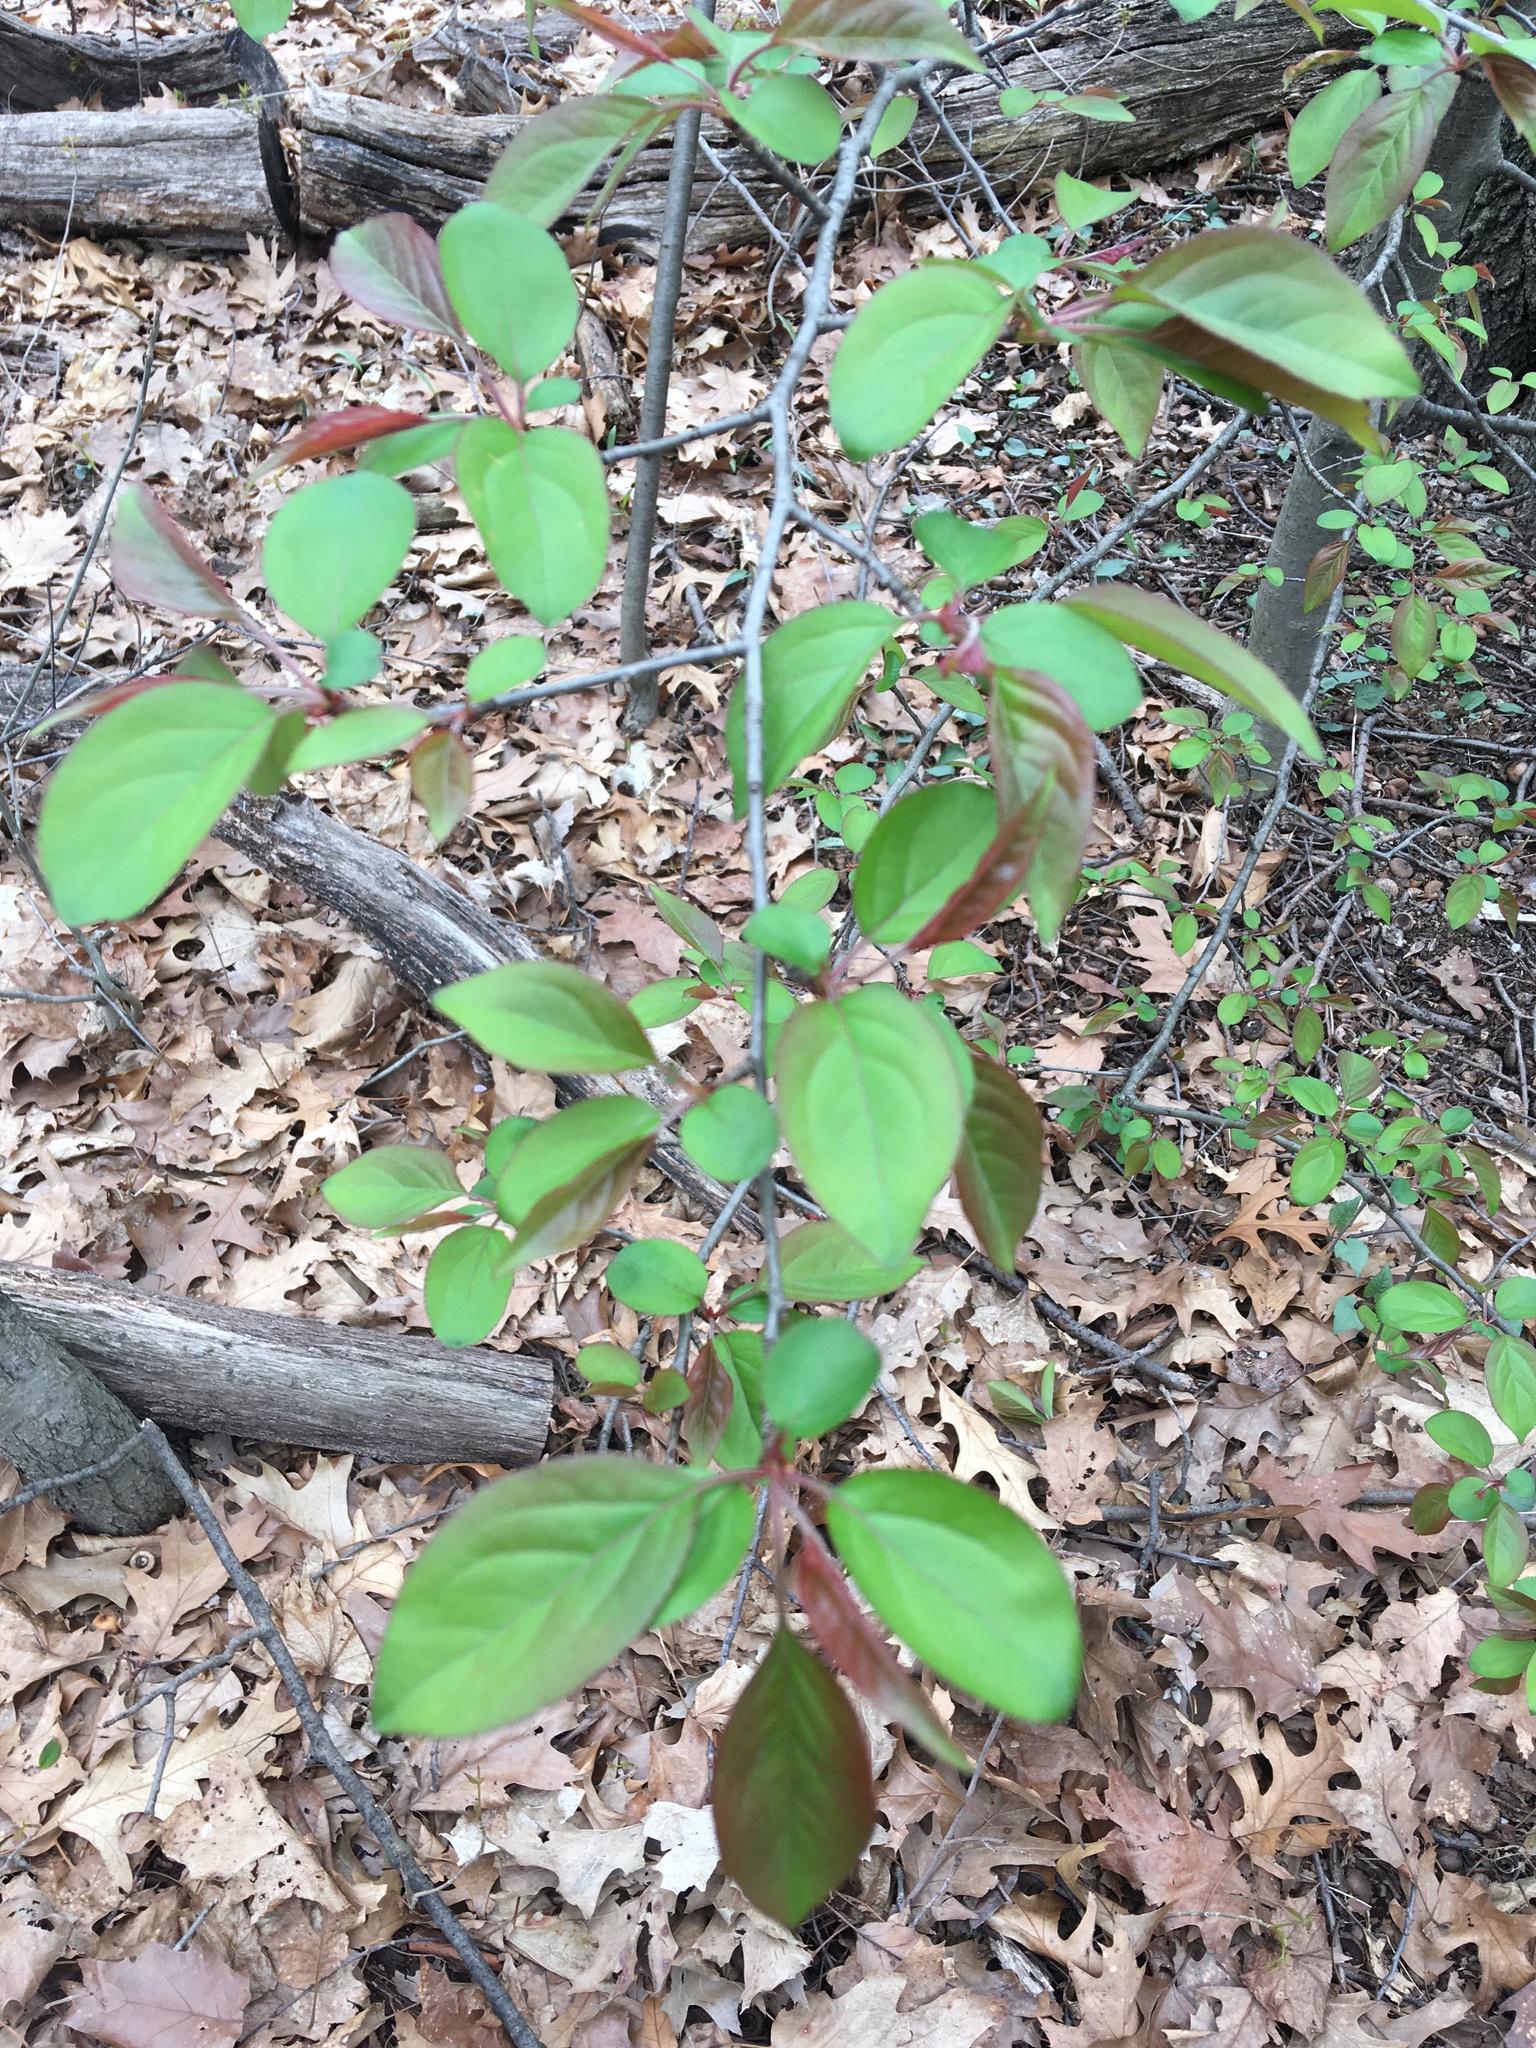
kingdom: Plantae
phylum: Tracheophyta
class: Magnoliopsida
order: Rosales
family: Rosaceae
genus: Malus
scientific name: Malus hupehensis
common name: Chinese crab apple
